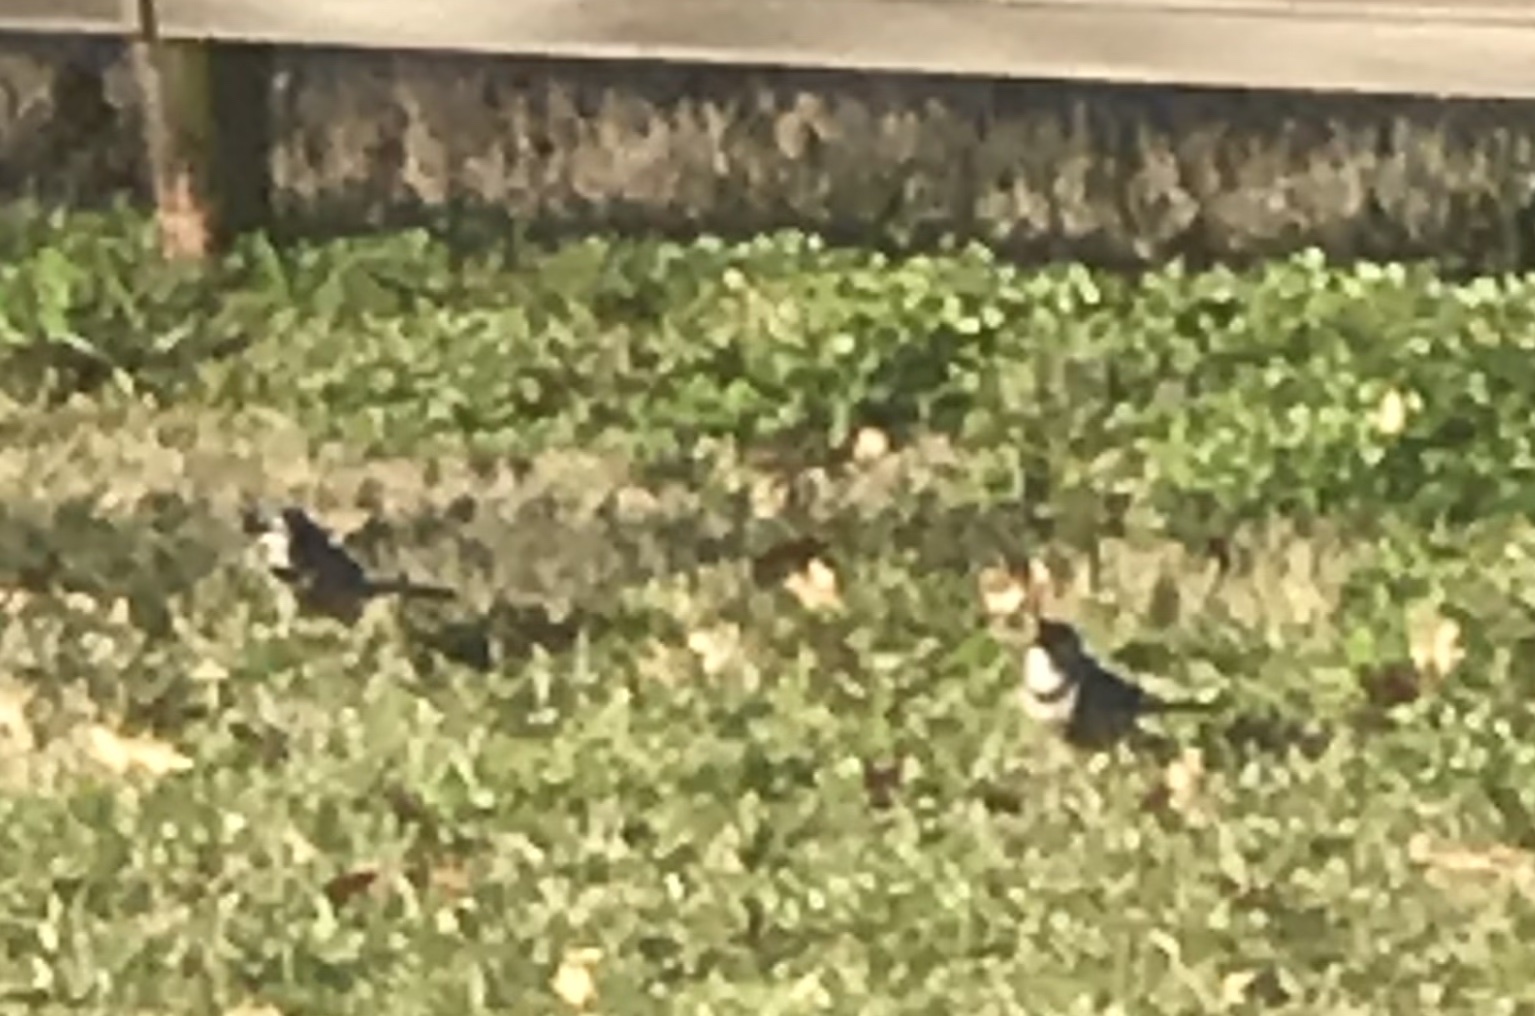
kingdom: Animalia
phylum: Chordata
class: Aves
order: Passeriformes
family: Corvidae
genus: Cyanocitta
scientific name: Cyanocitta cristata
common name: Blue jay
